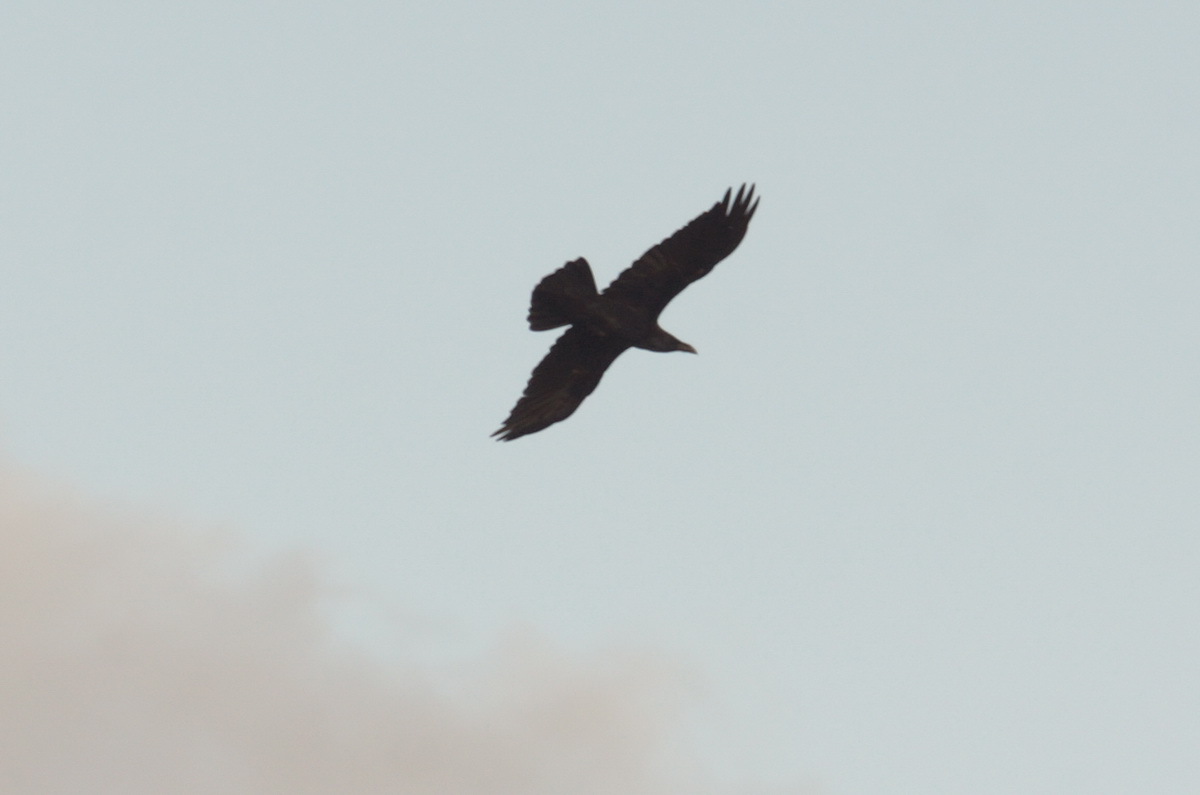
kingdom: Animalia
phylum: Chordata
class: Aves
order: Passeriformes
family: Corvidae
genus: Corvus
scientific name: Corvus corax
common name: Common raven
